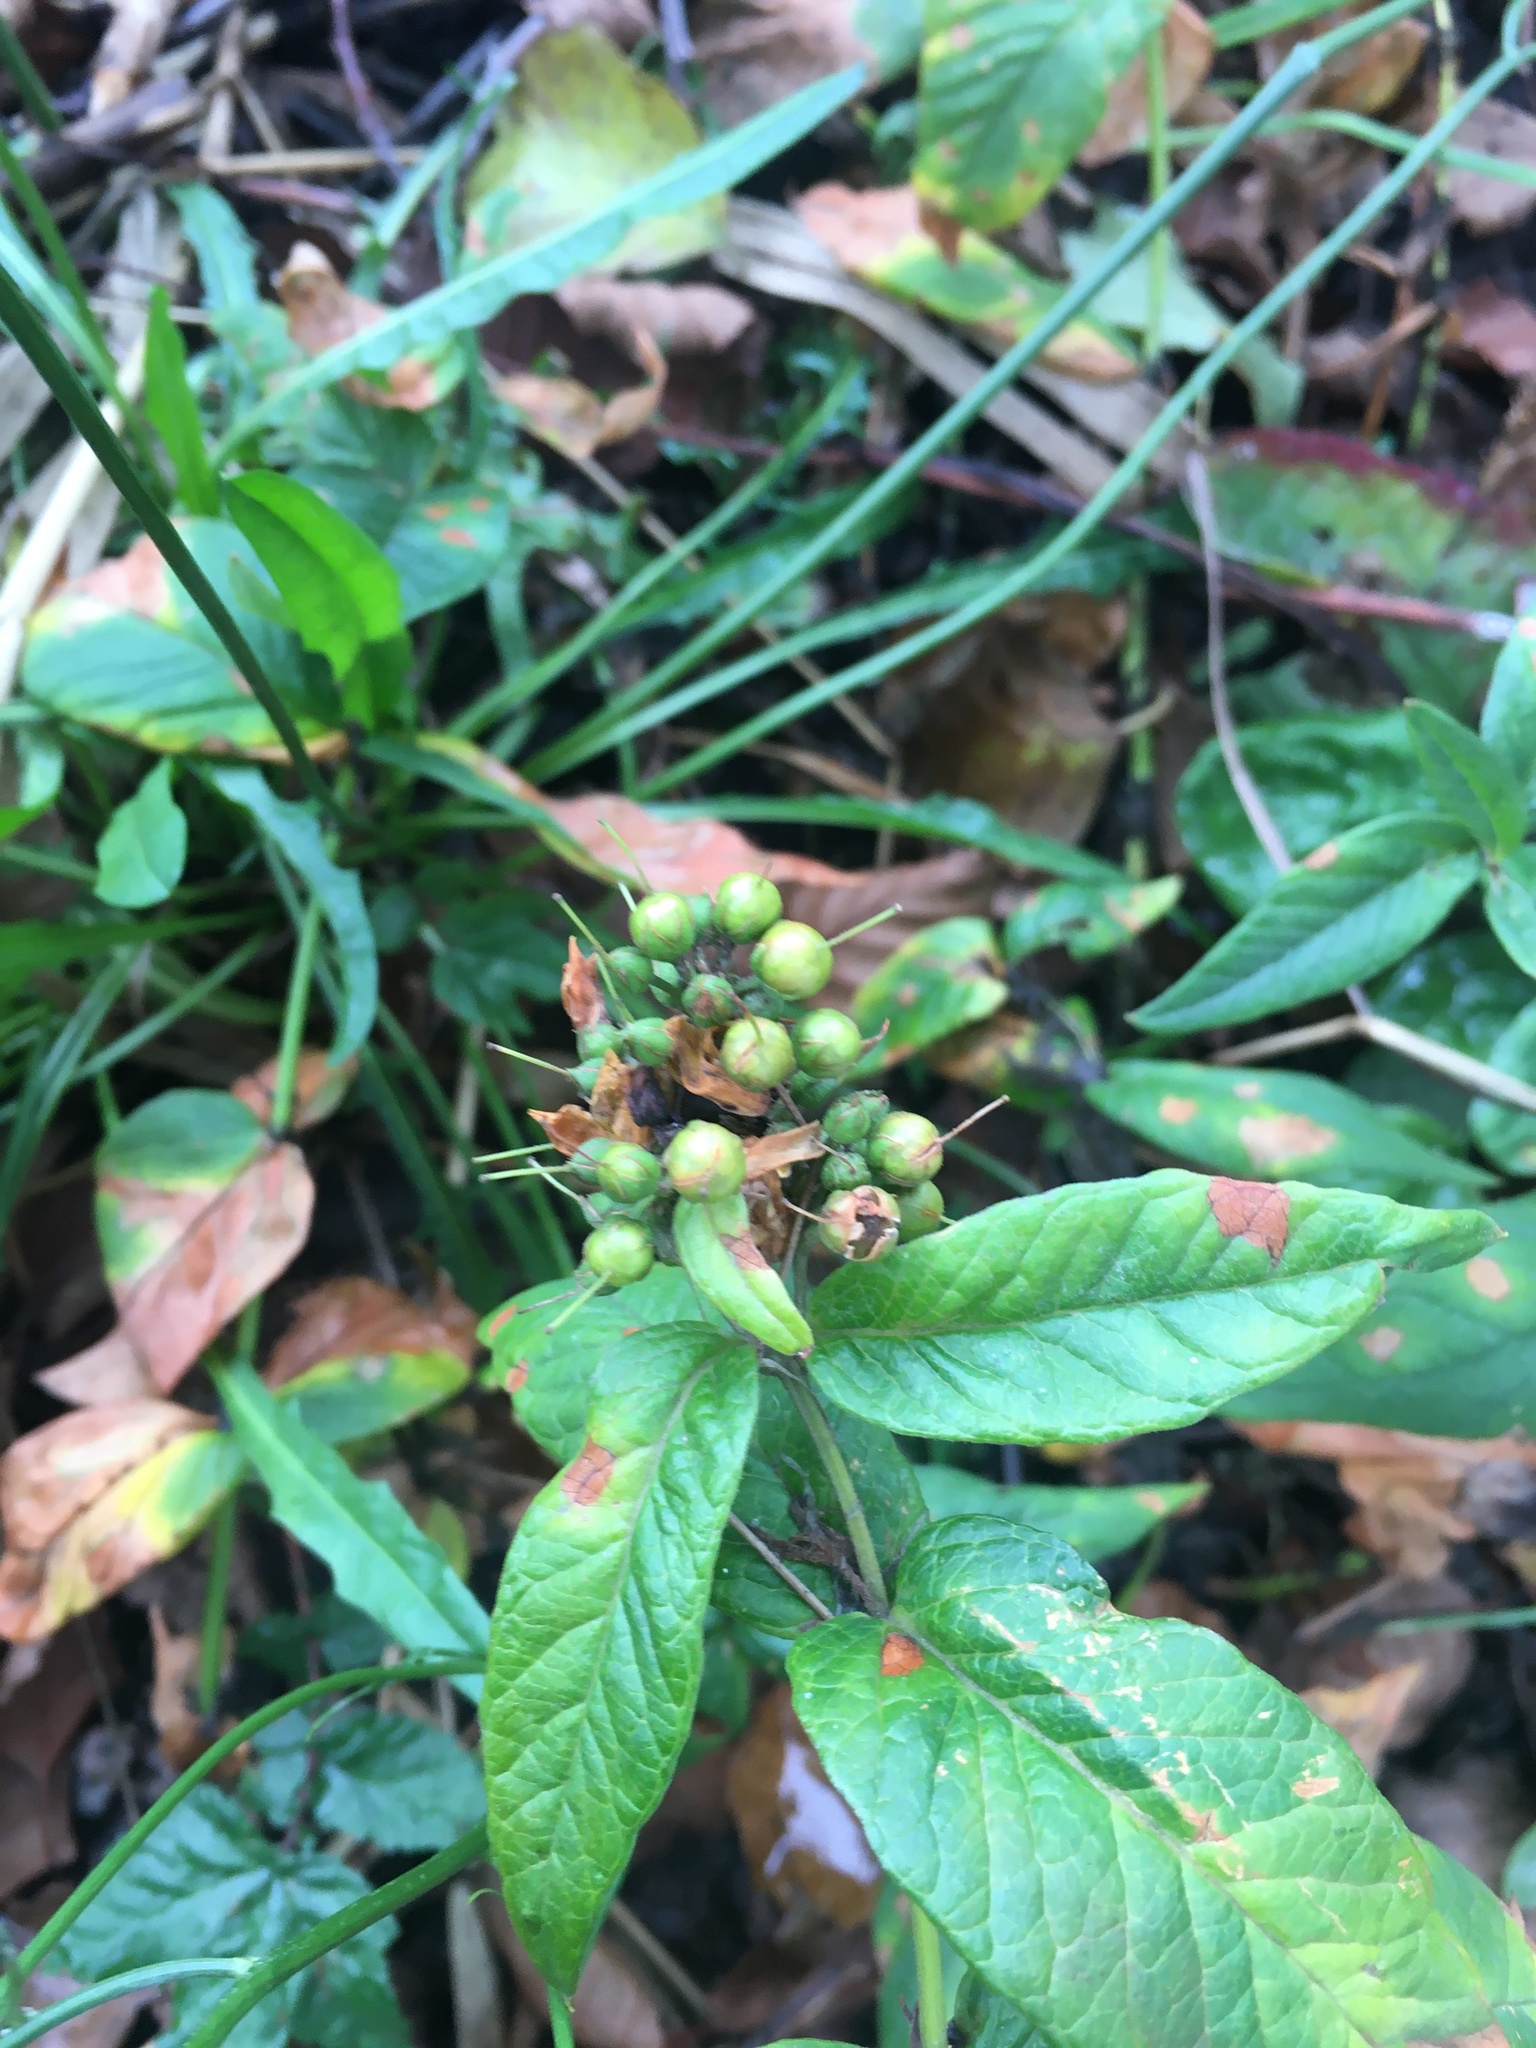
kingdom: Plantae
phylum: Tracheophyta
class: Magnoliopsida
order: Ericales
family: Primulaceae
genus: Lysimachia
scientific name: Lysimachia vulgaris
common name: Yellow loosestrife
